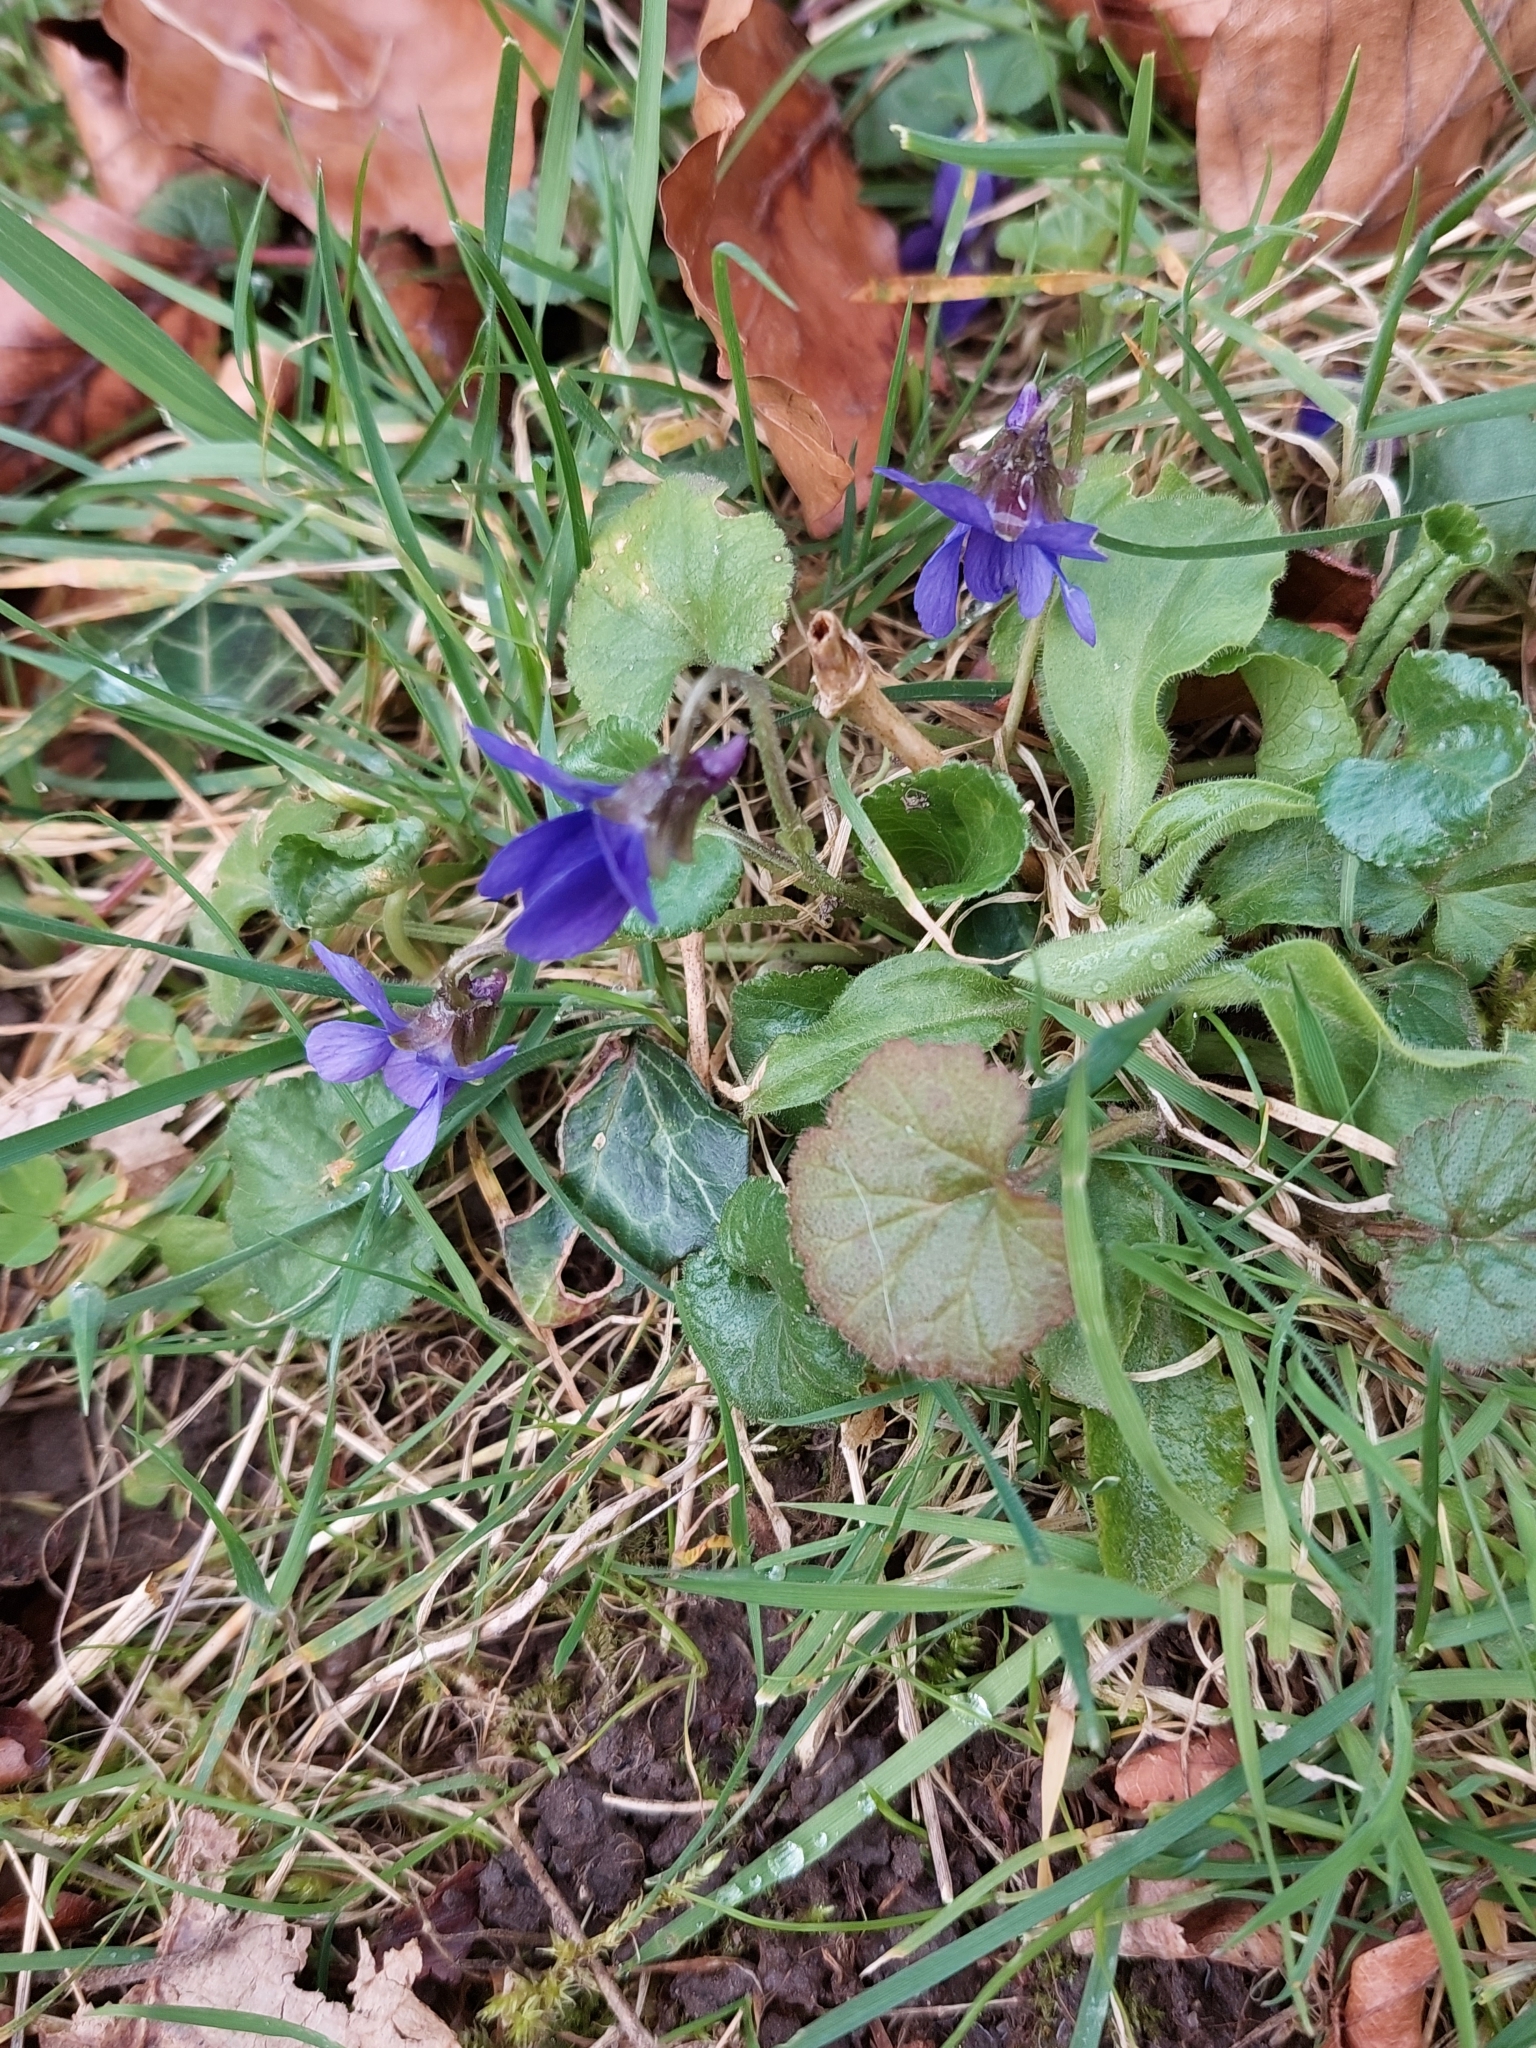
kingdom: Plantae
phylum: Tracheophyta
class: Magnoliopsida
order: Malpighiales
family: Violaceae
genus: Viola
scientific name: Viola odorata
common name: Sweet violet
